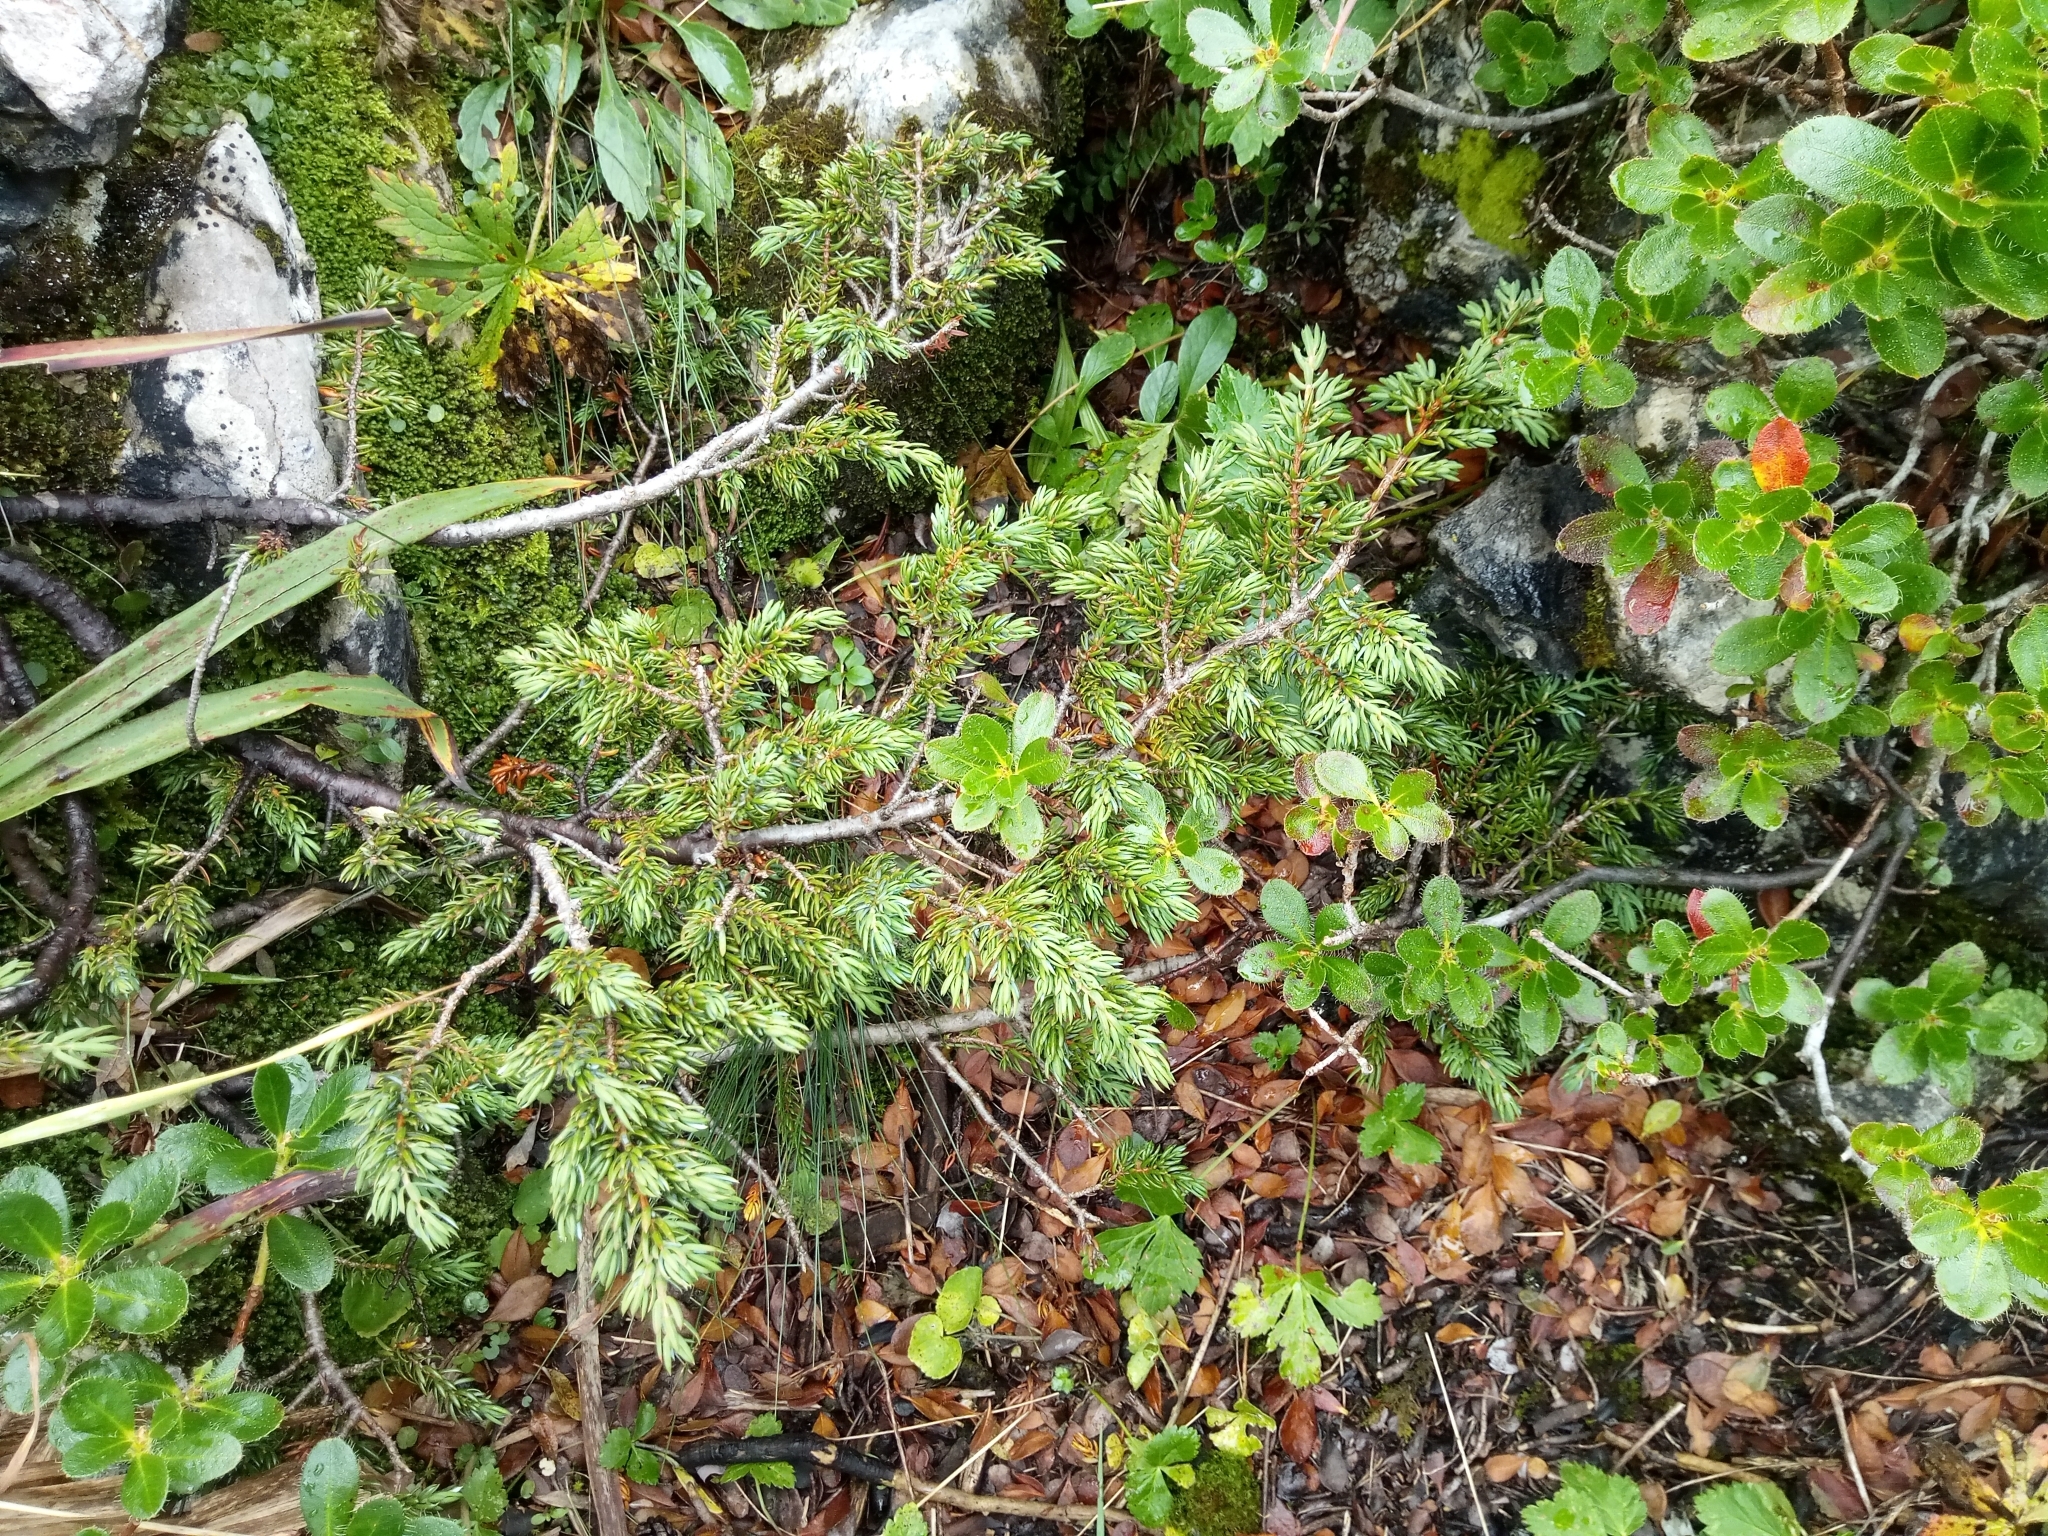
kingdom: Plantae
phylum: Tracheophyta
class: Pinopsida
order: Pinales
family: Cupressaceae
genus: Juniperus
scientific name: Juniperus communis
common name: Common juniper
